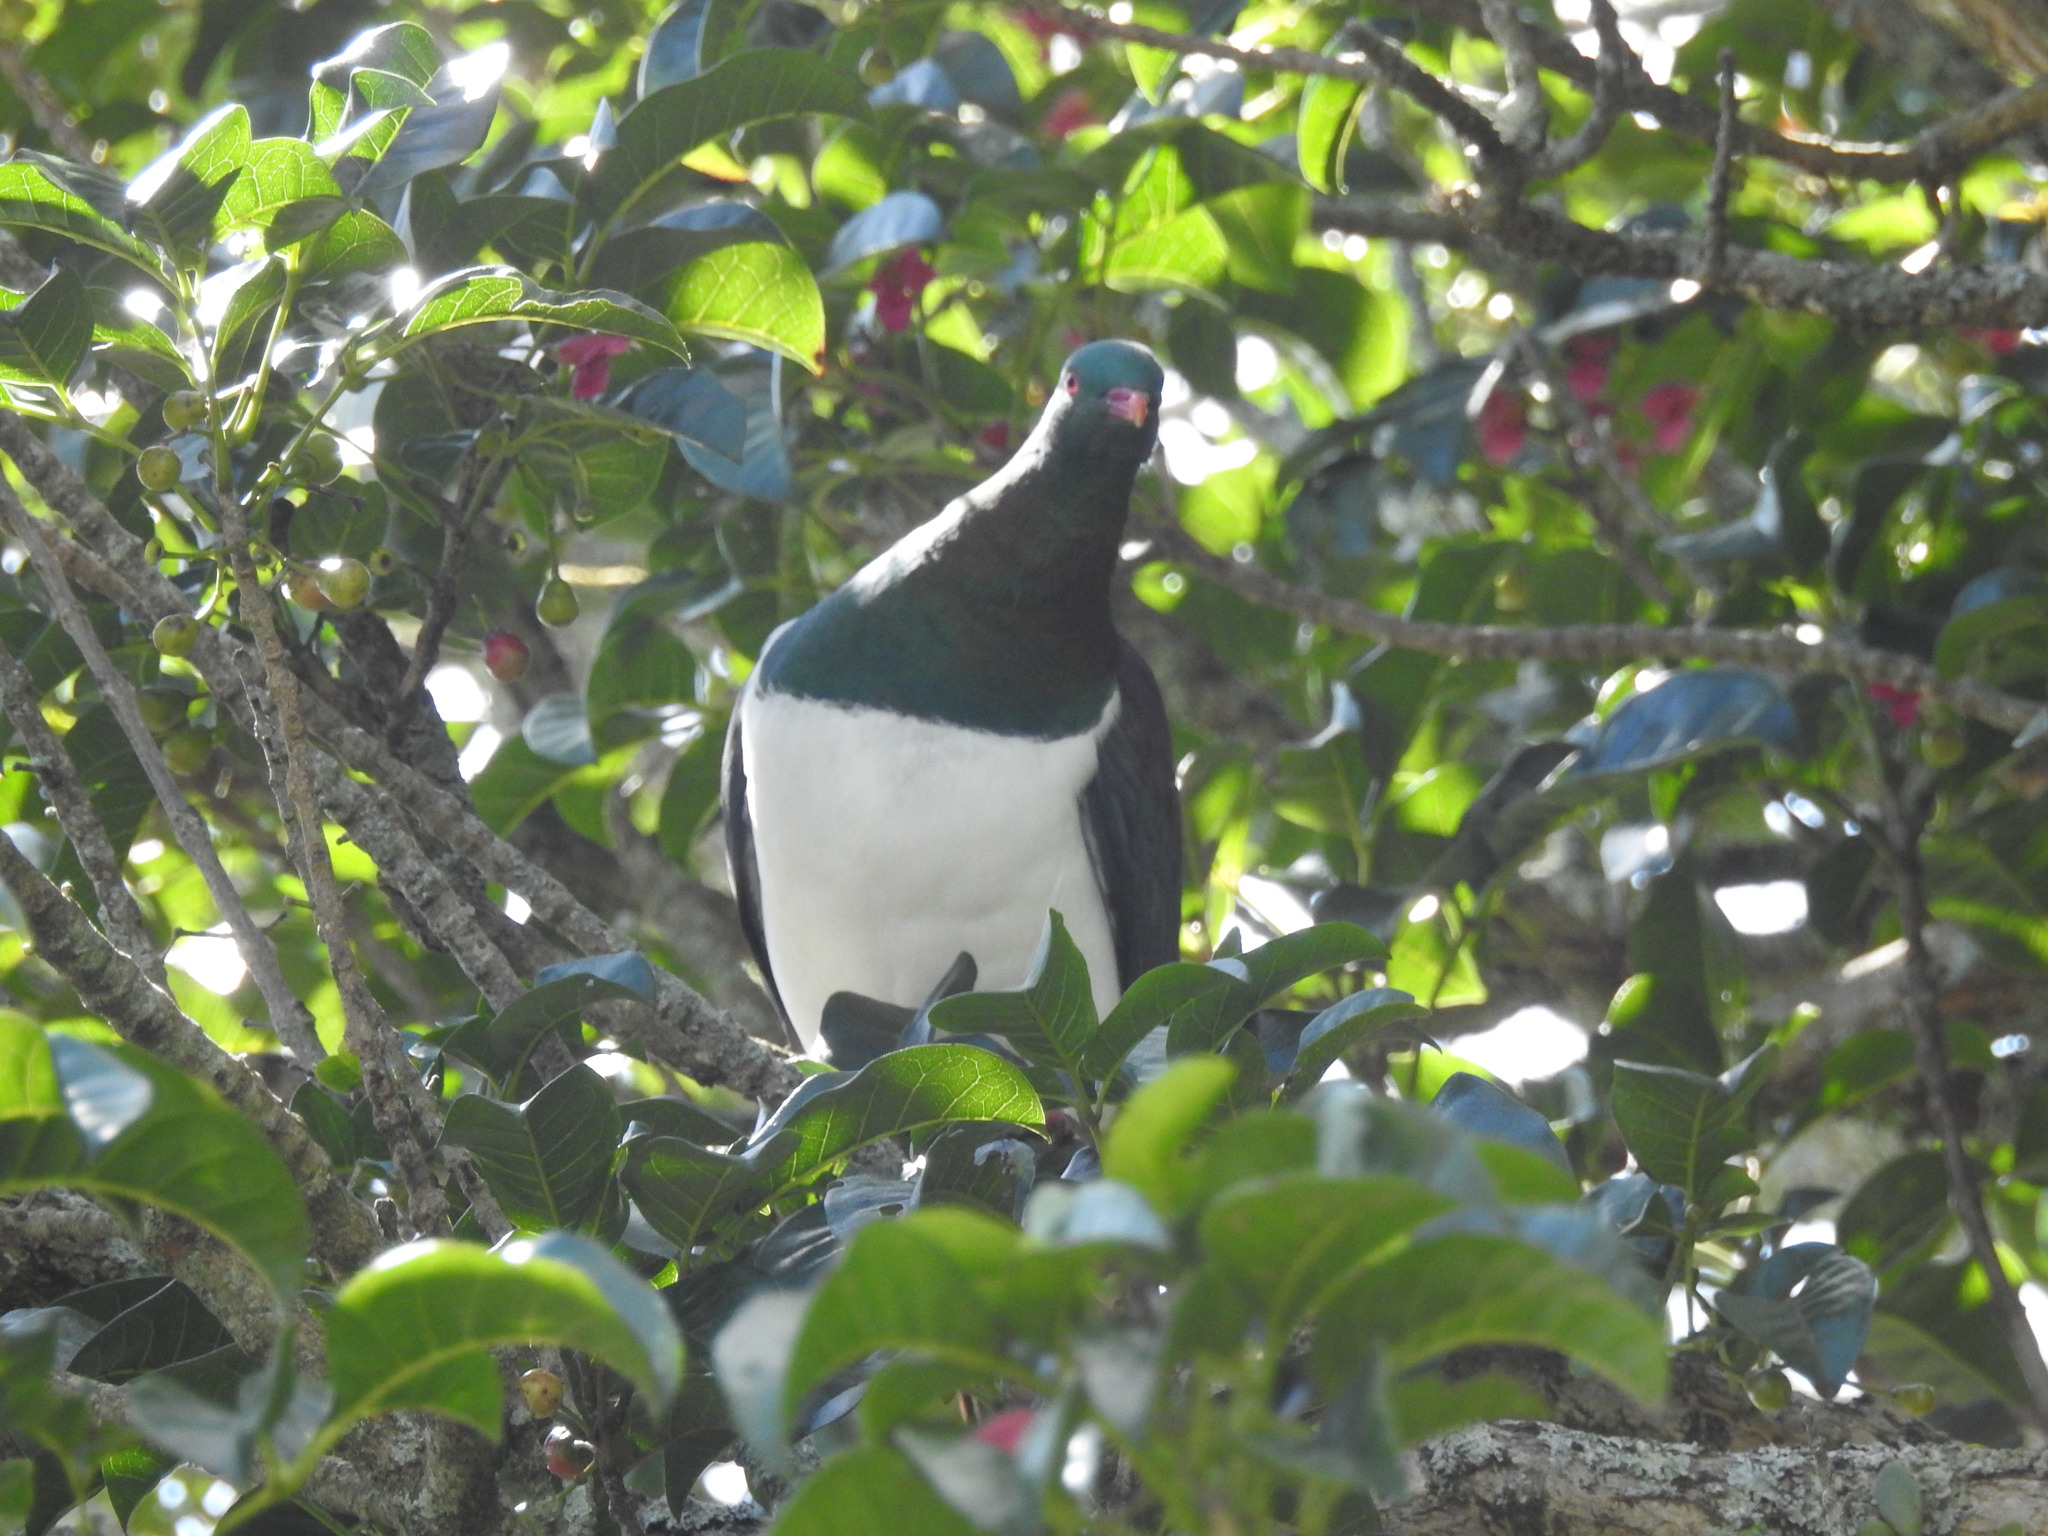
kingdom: Animalia
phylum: Chordata
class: Aves
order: Columbiformes
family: Columbidae
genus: Hemiphaga
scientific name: Hemiphaga novaeseelandiae
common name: New zealand pigeon
